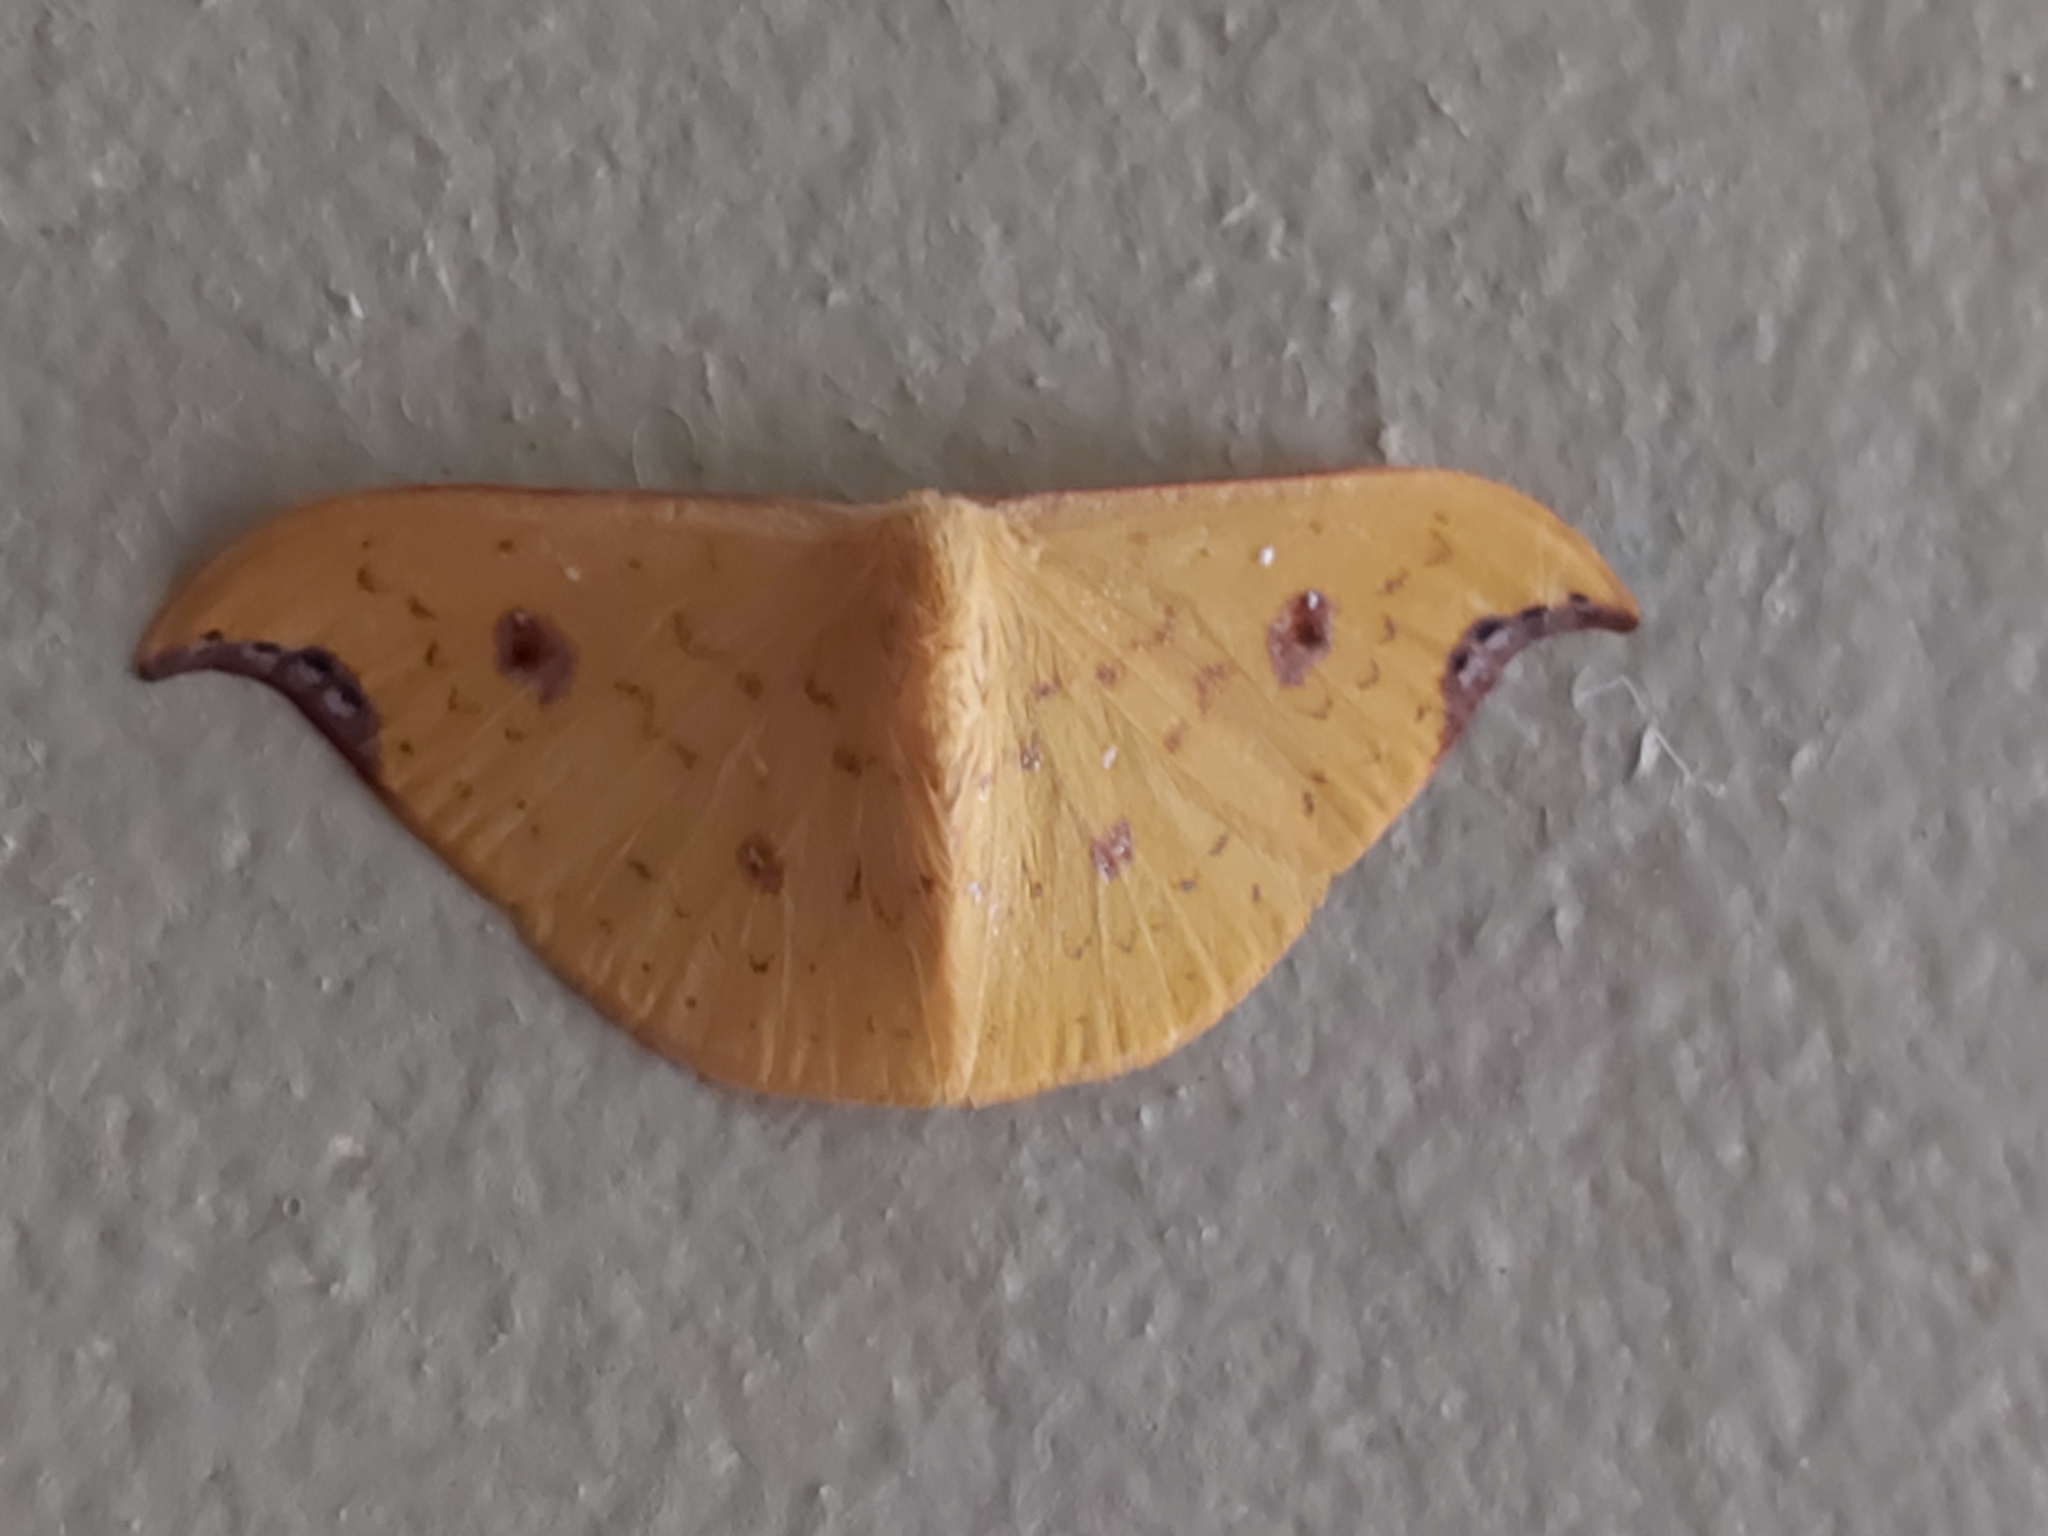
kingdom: Animalia
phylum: Arthropoda
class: Insecta
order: Lepidoptera
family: Drepanidae
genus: Tridrepana
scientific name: Tridrepana lunulata
